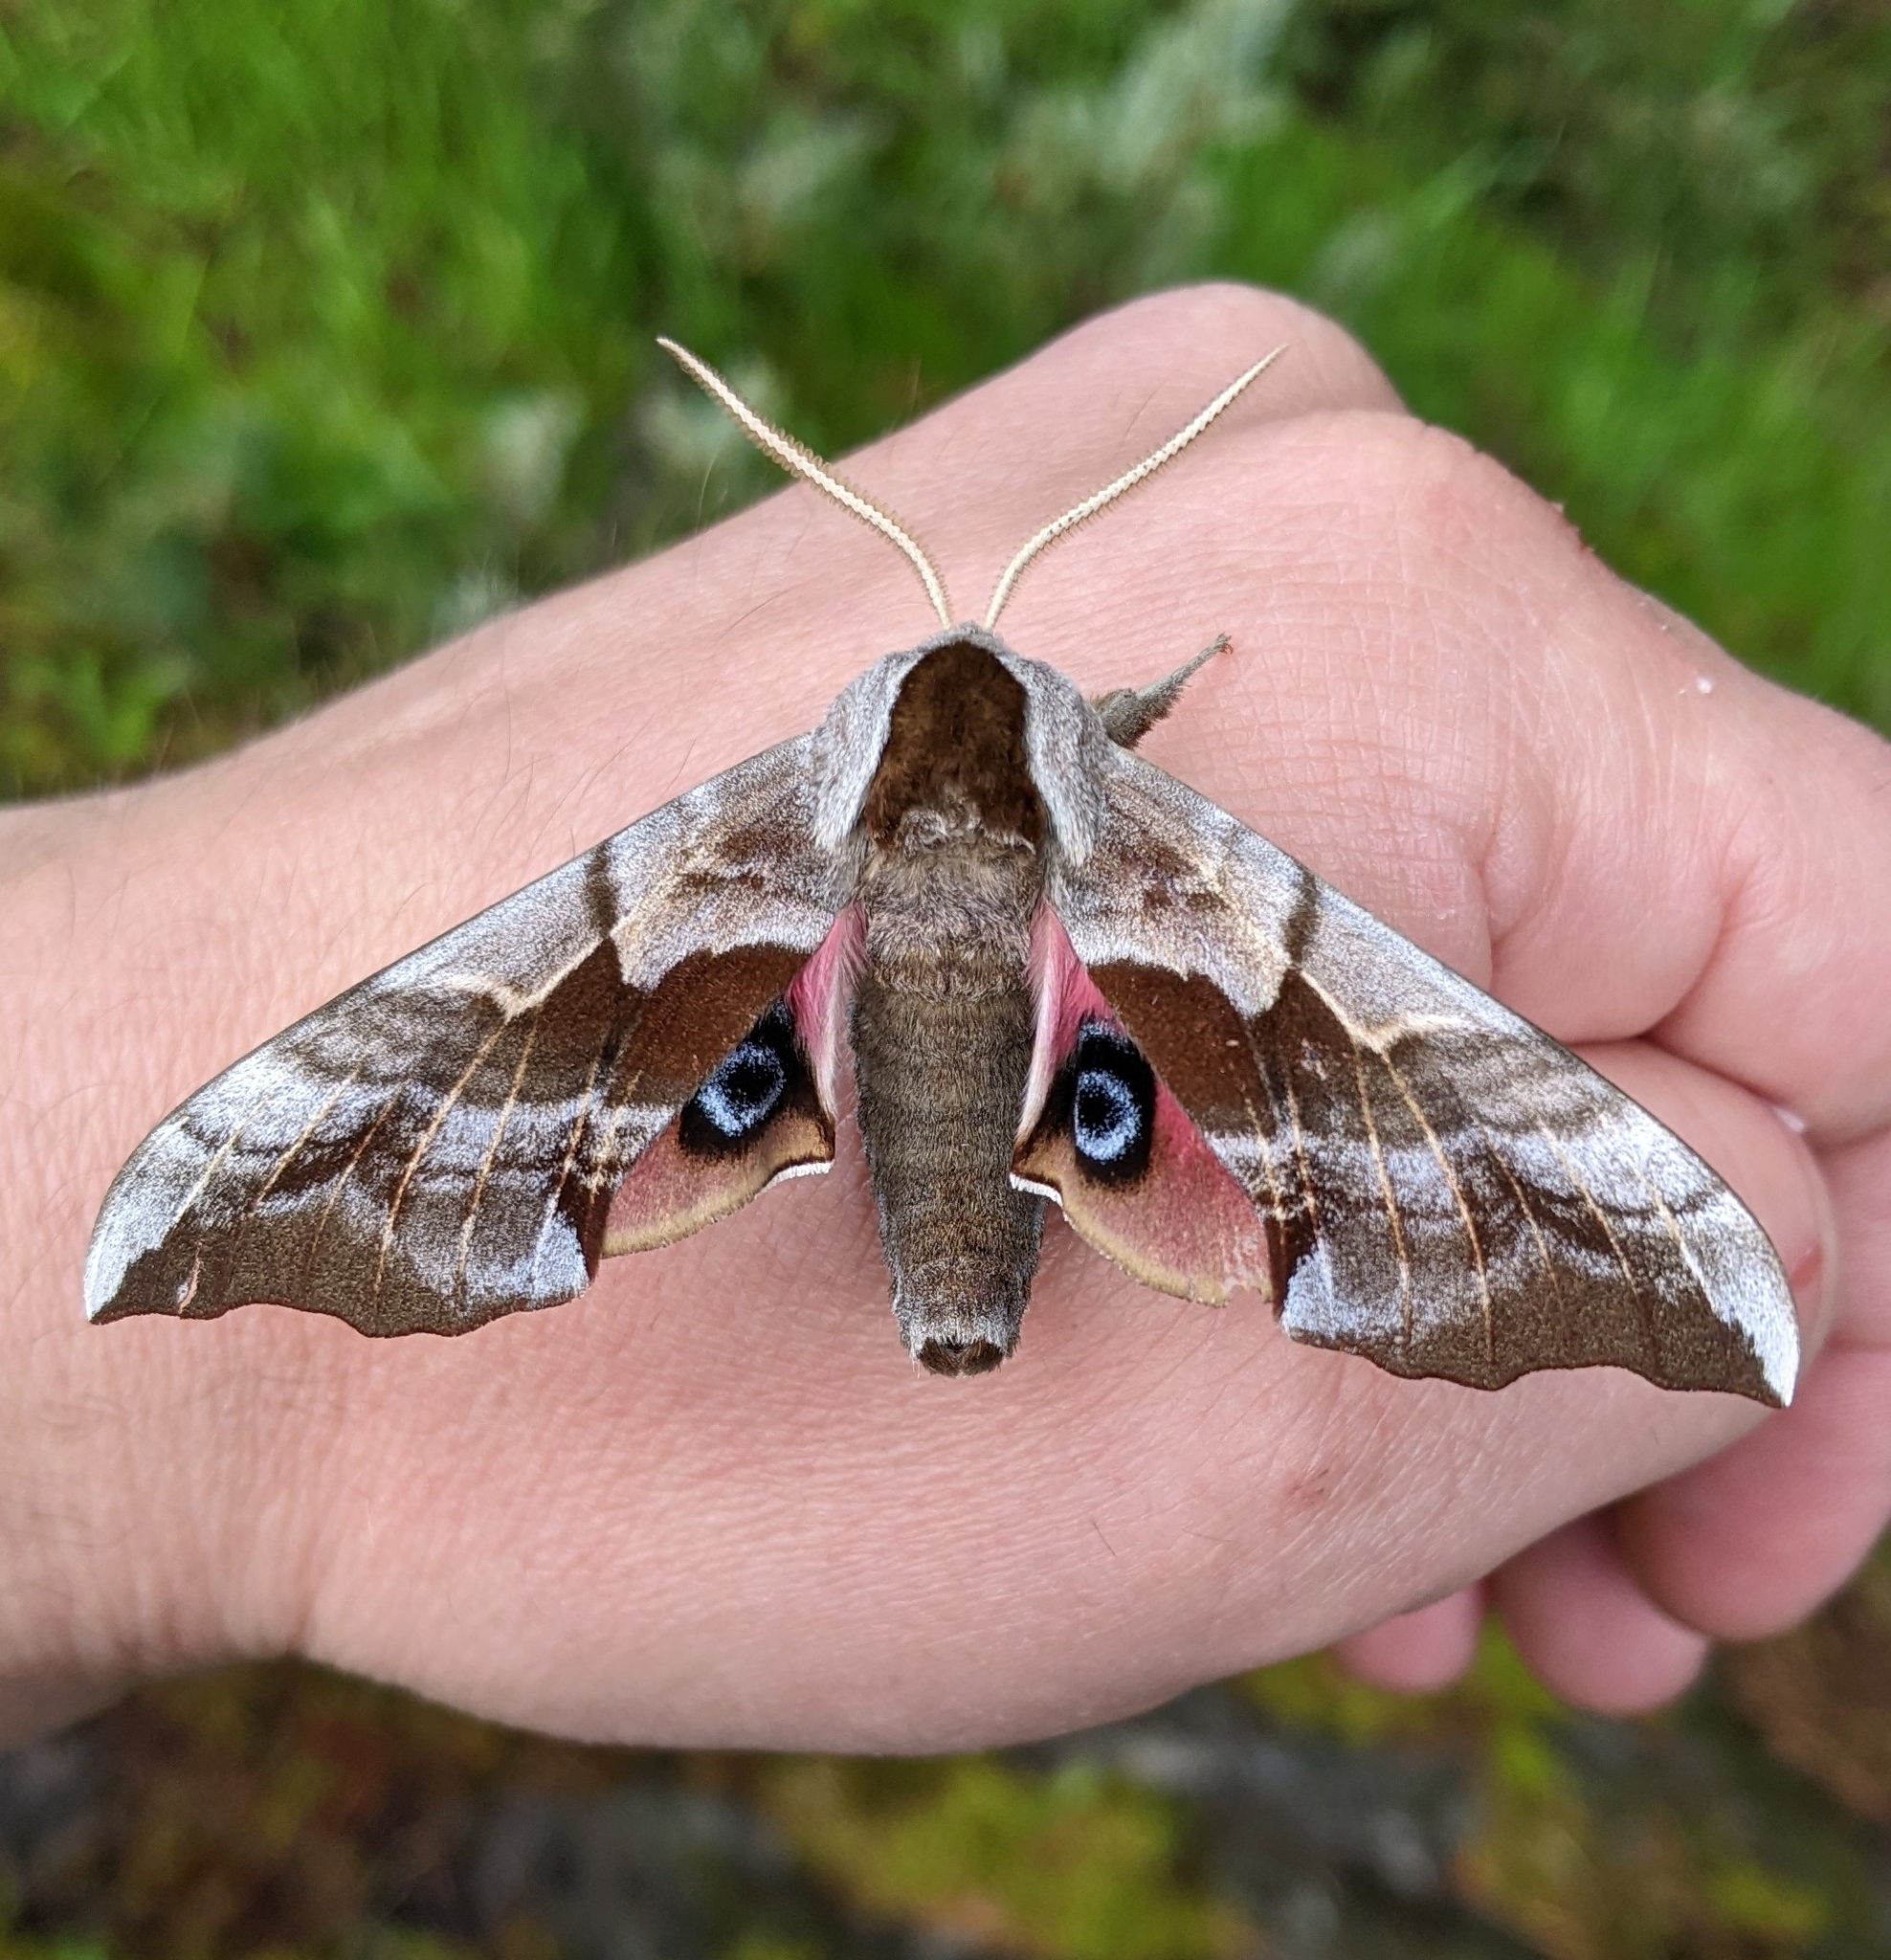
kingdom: Animalia
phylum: Arthropoda
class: Insecta
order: Lepidoptera
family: Sphingidae
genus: Smerinthus
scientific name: Smerinthus cerisyi
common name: Cerisy's sphinx moth
